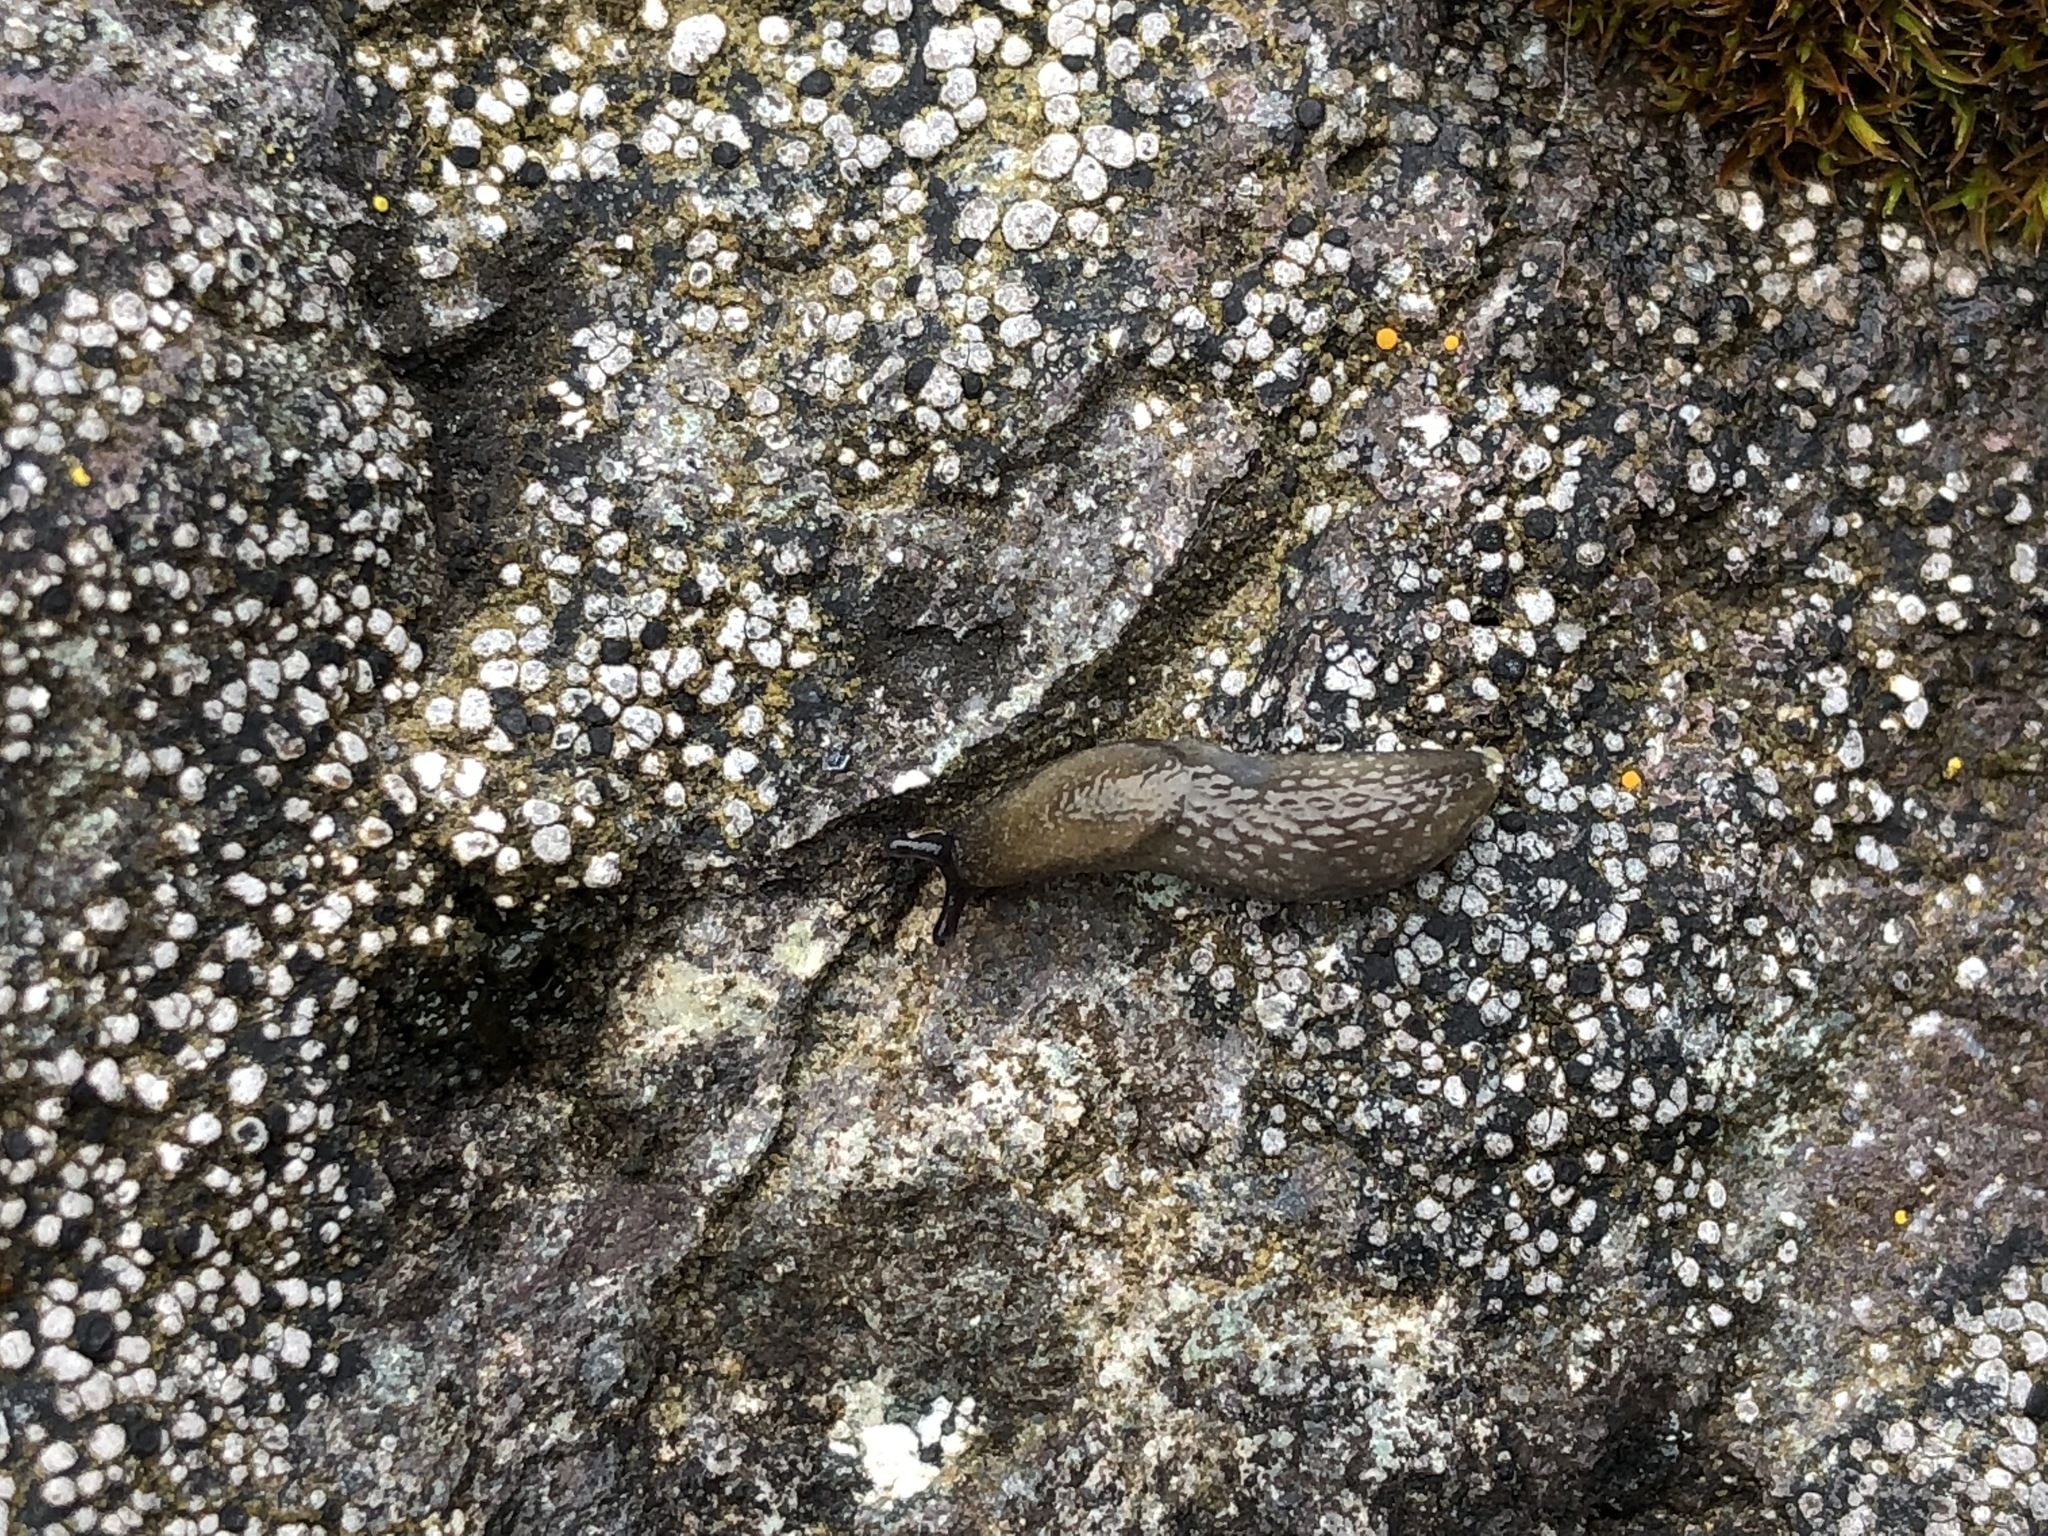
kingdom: Animalia
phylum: Mollusca
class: Gastropoda
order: Stylommatophora
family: Arionidae
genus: Arion
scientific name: Arion intermedius
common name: Hedgehog slug
